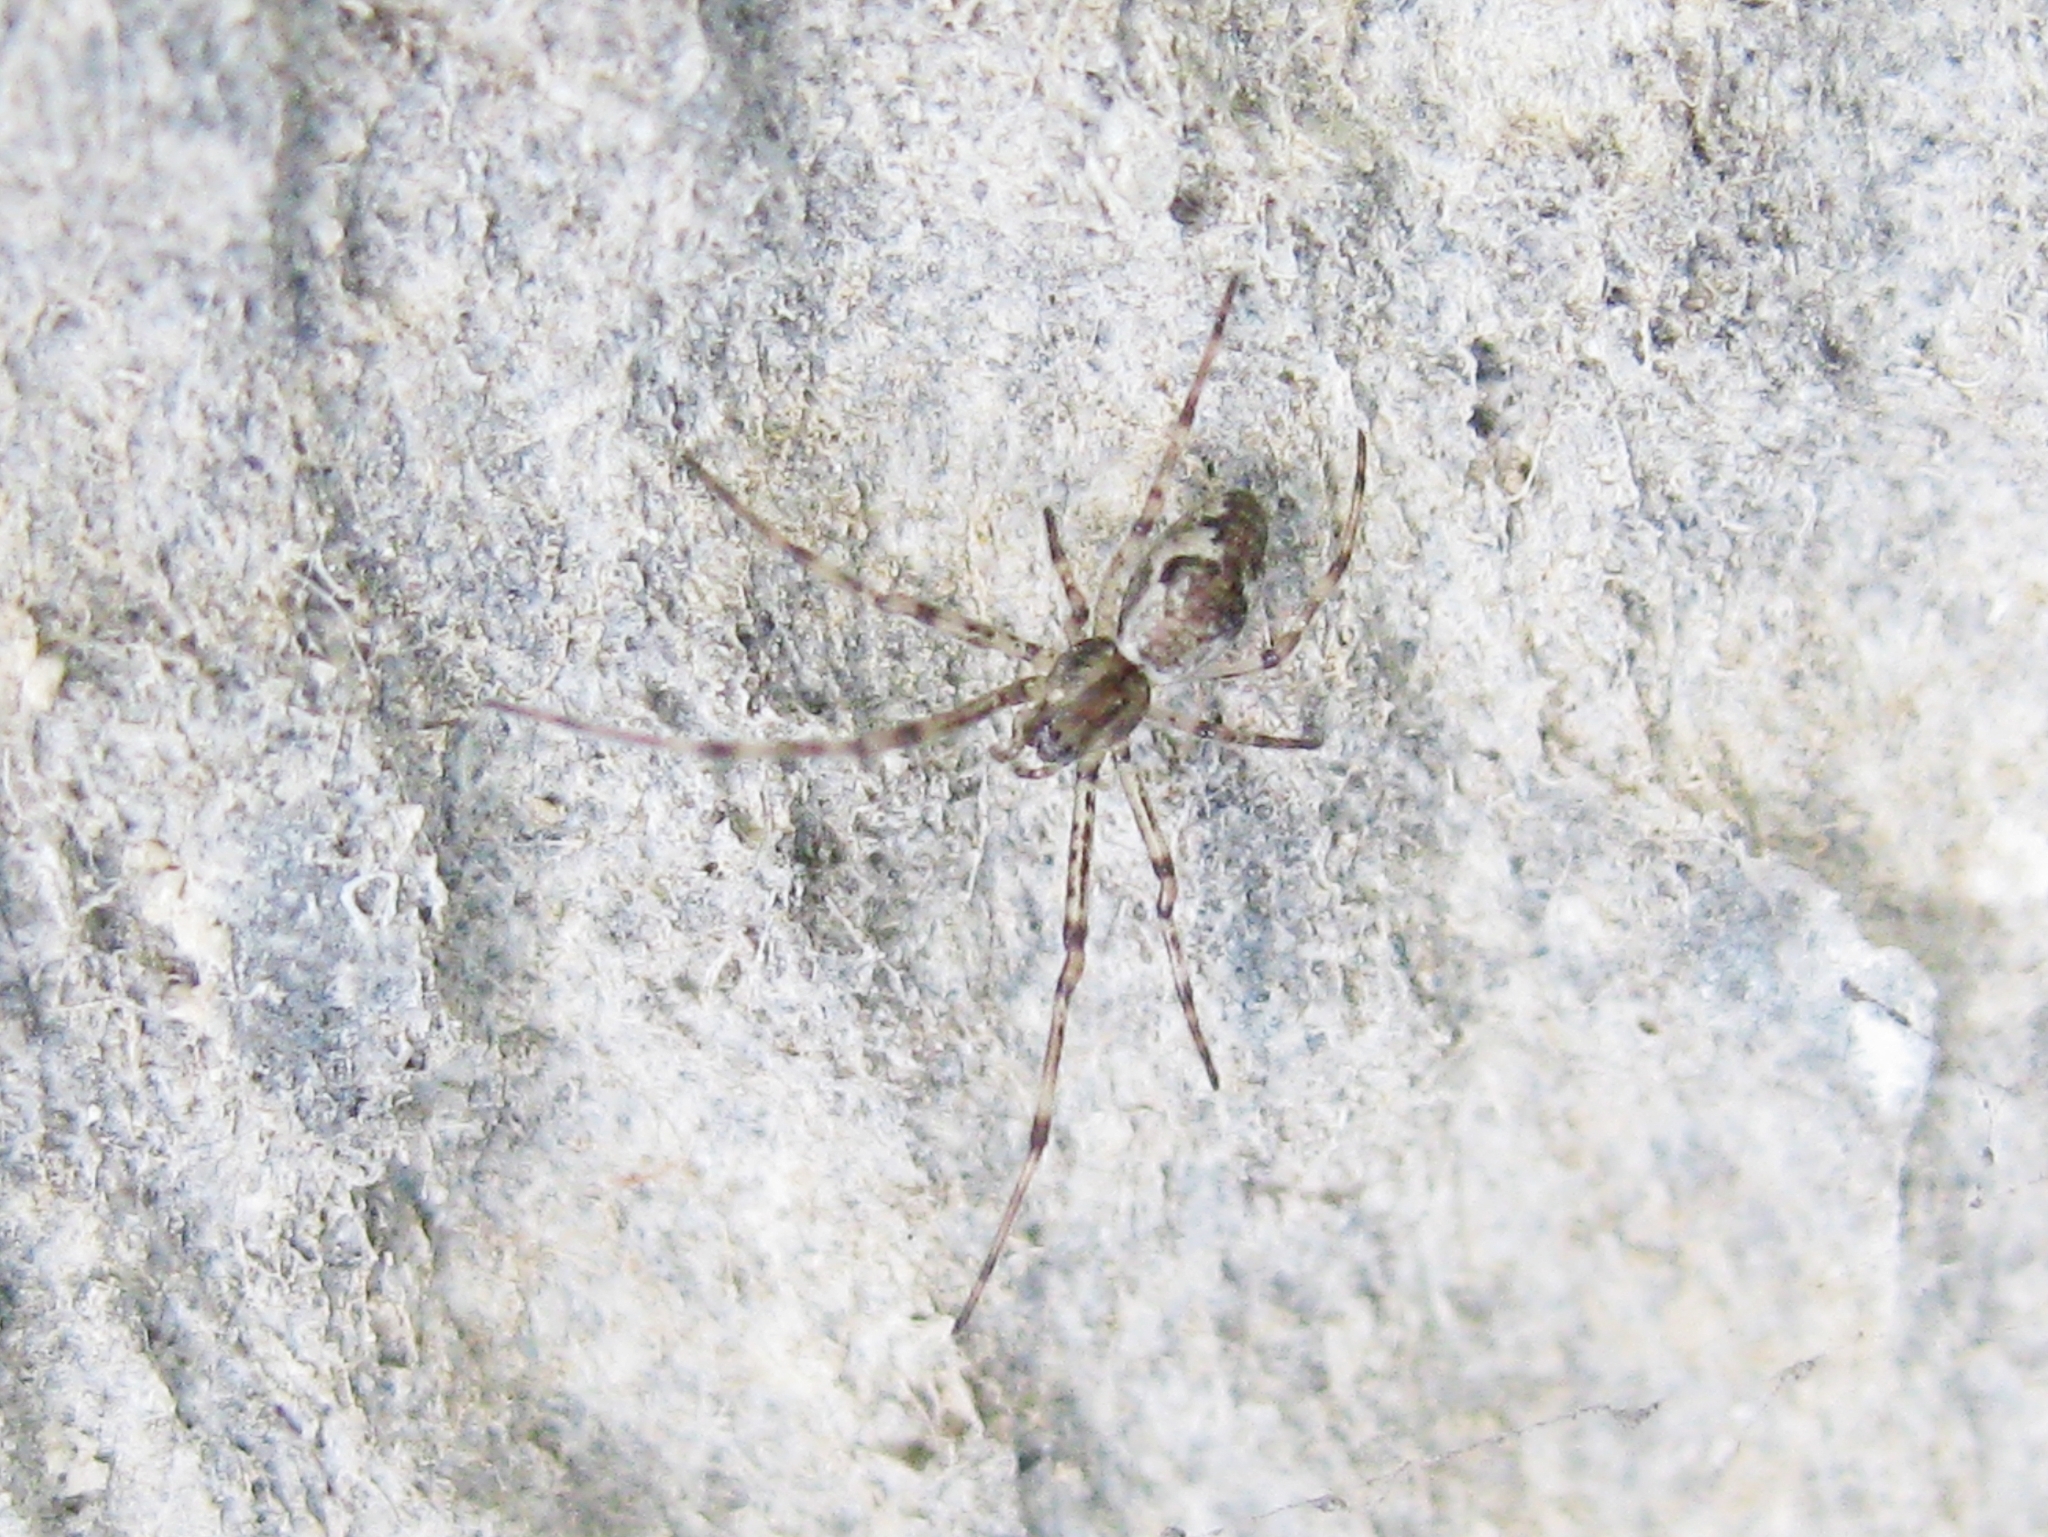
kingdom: Animalia
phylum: Arthropoda
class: Arachnida
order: Araneae
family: Tetragnathidae
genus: Tetragnatha
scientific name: Tetragnatha
